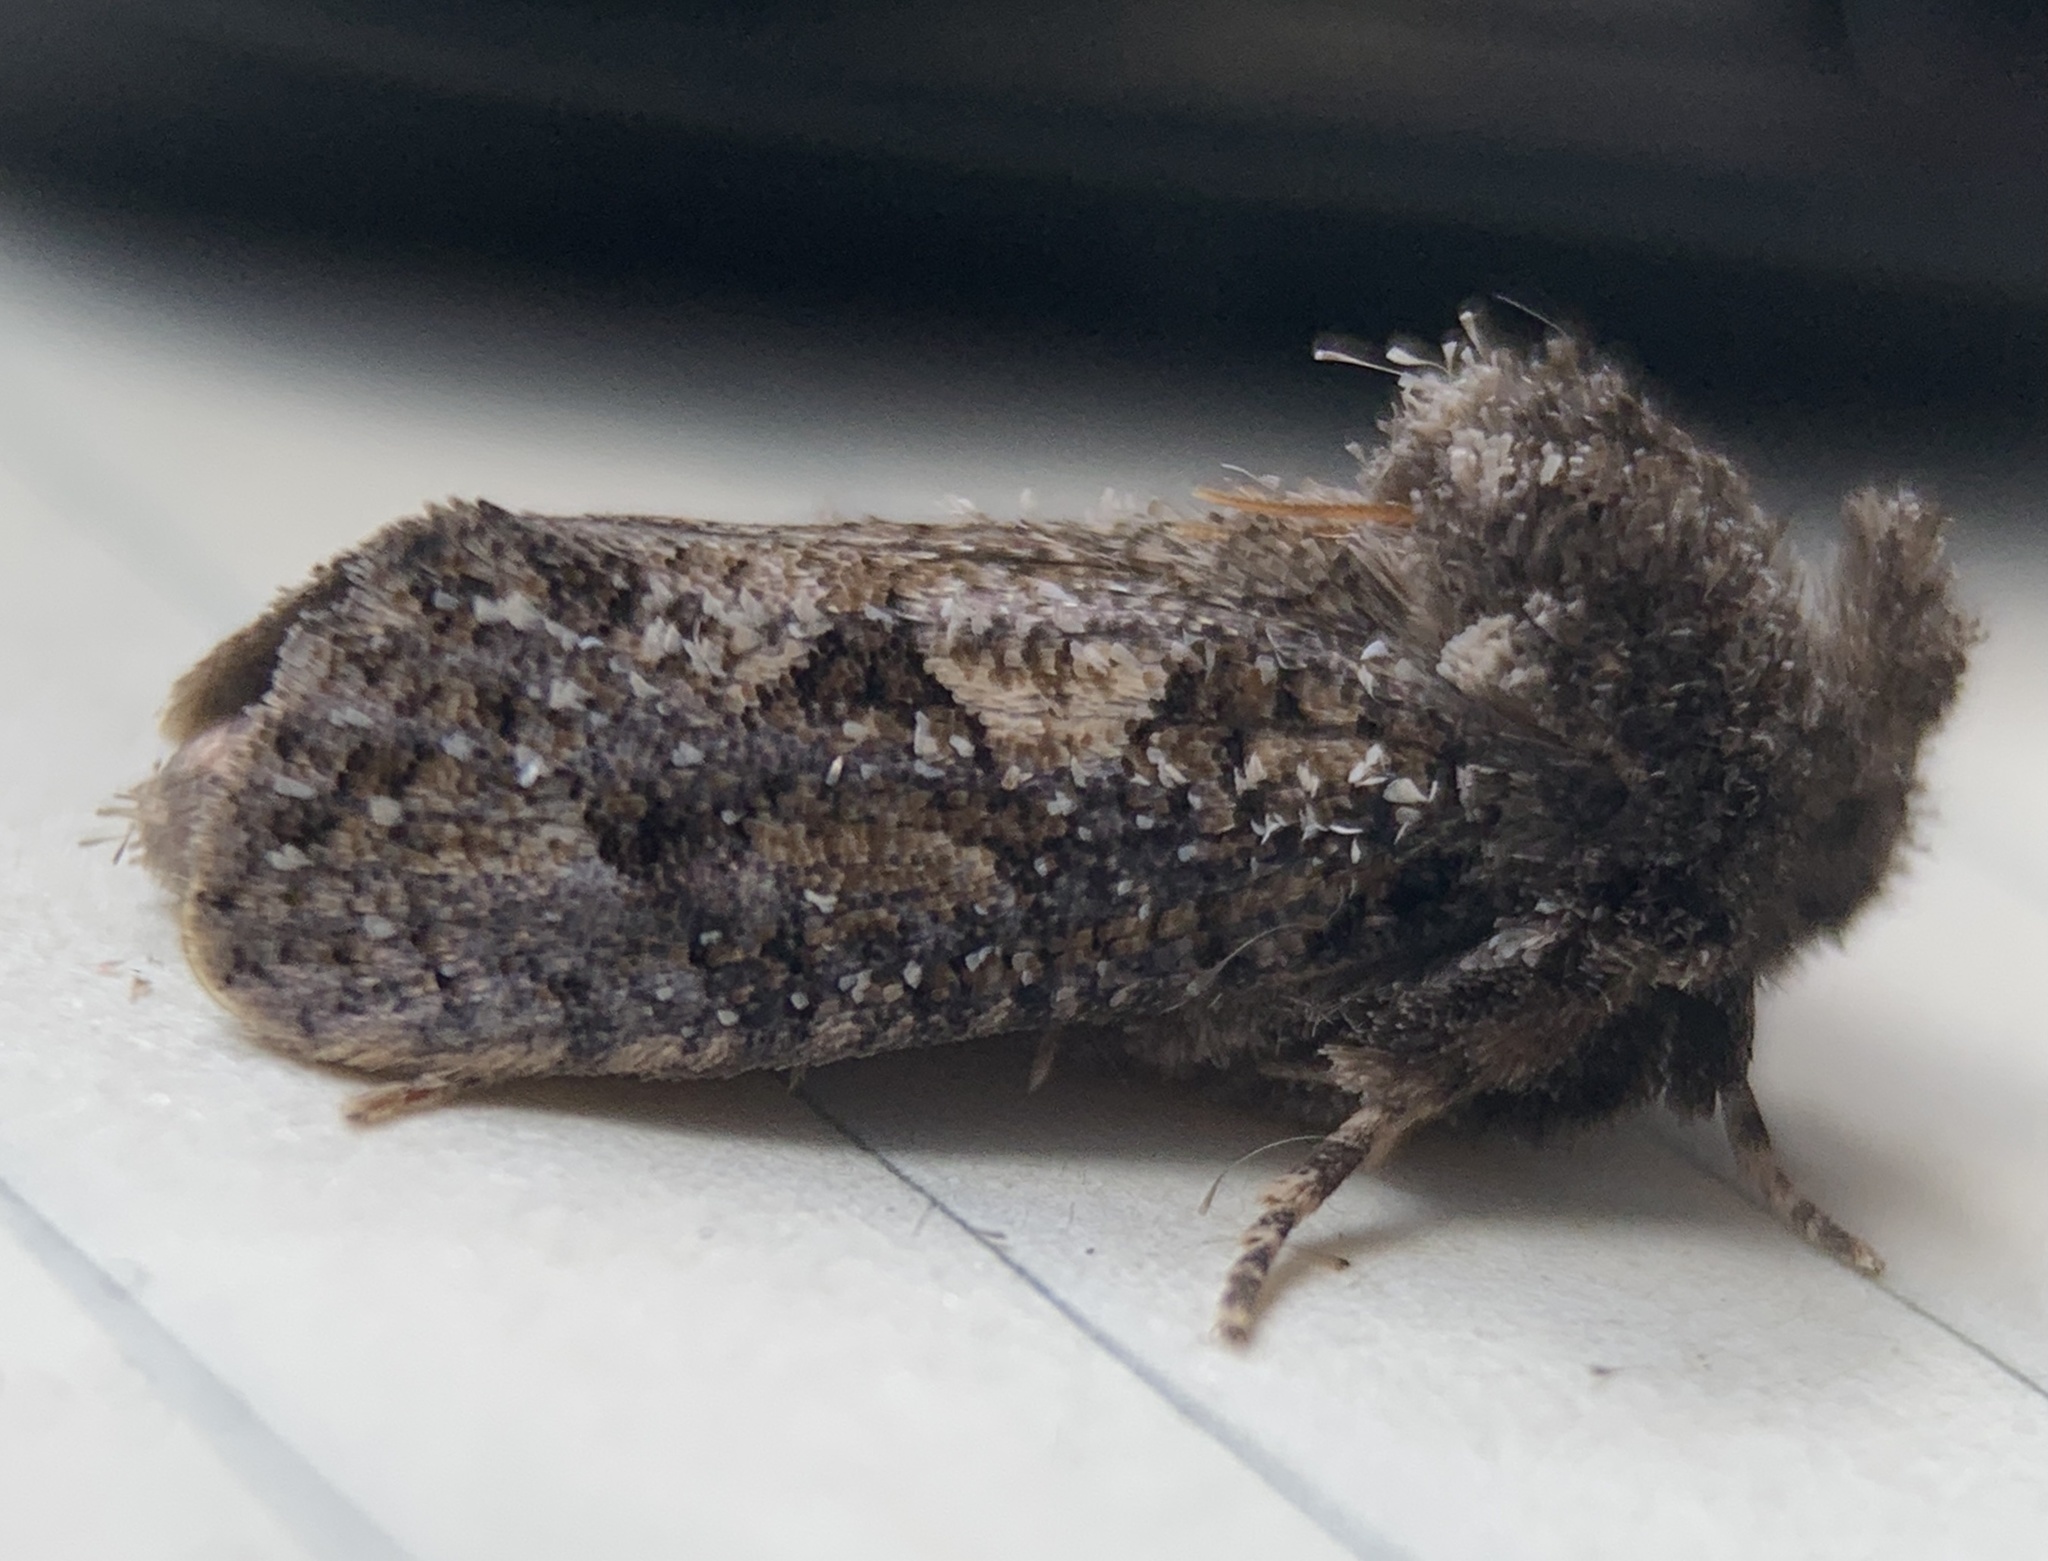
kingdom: Animalia
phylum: Arthropoda
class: Insecta
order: Lepidoptera
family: Tineidae
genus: Acrolophus
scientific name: Acrolophus arcanella
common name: Arcane grass tubeworm moth
